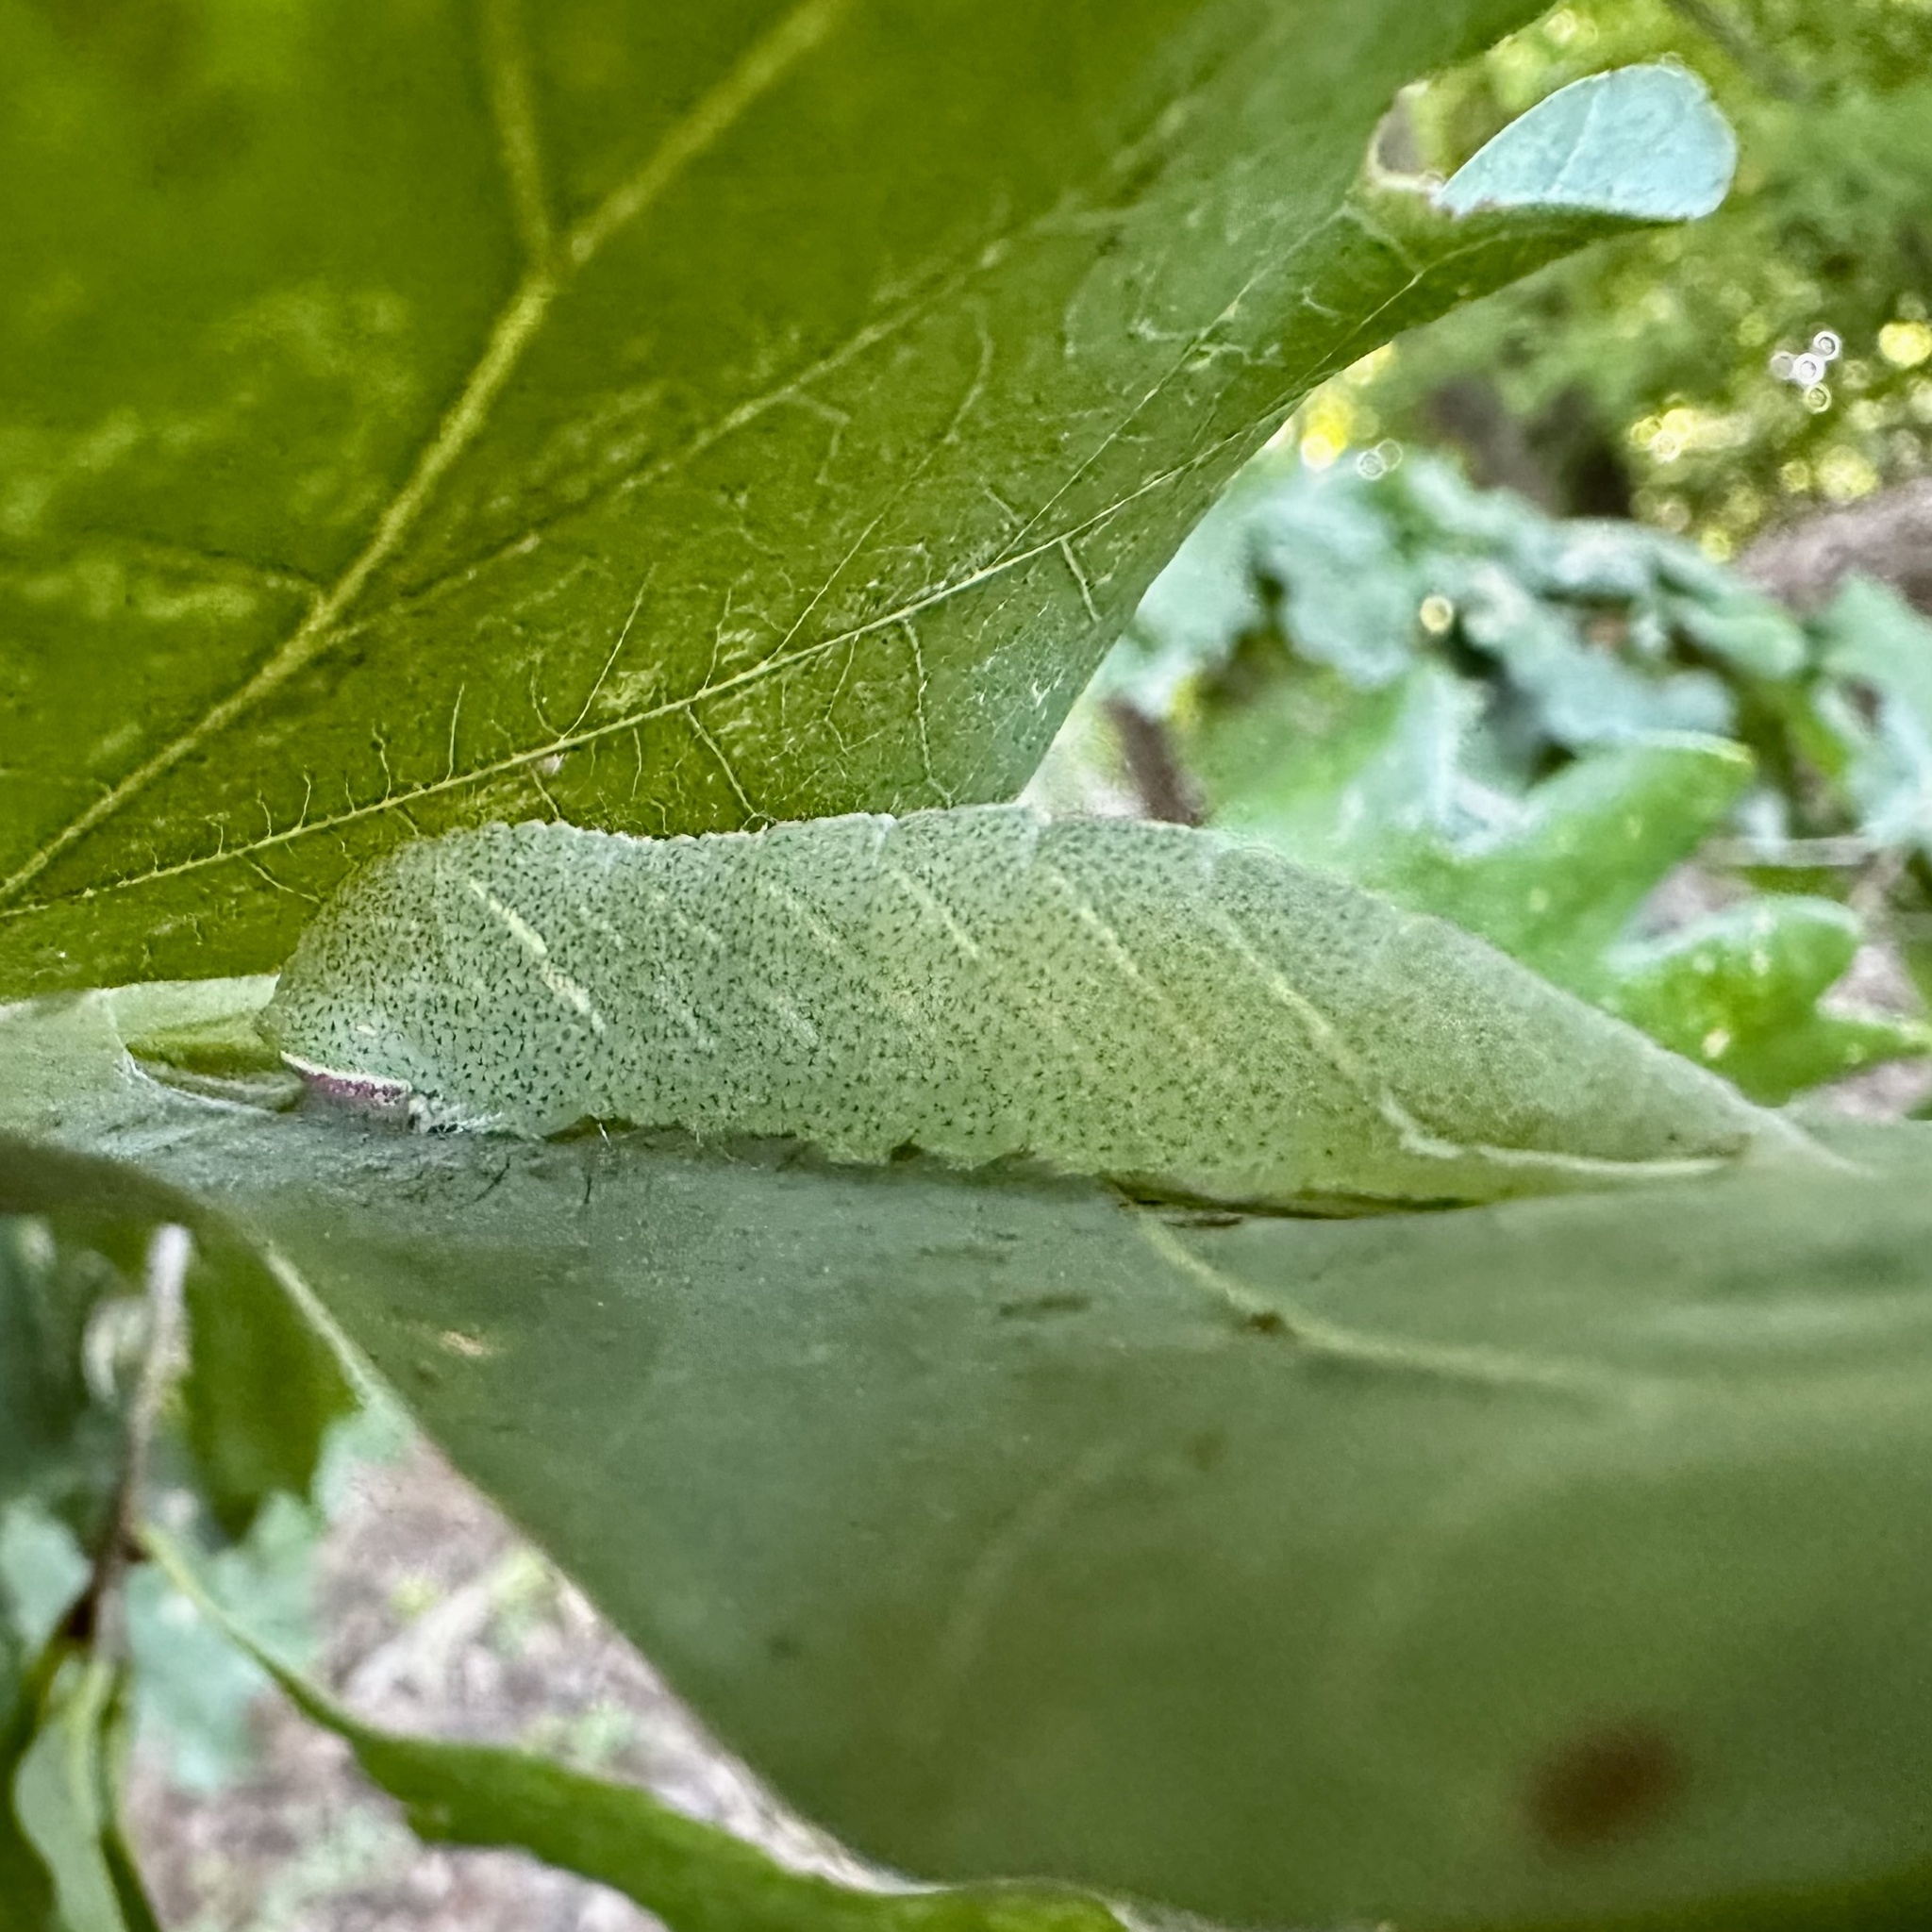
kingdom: Animalia
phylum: Arthropoda
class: Insecta
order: Lepidoptera
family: Notodontidae
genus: Macrurocampa
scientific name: Macrurocampa marthesia
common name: Mottled prominent
